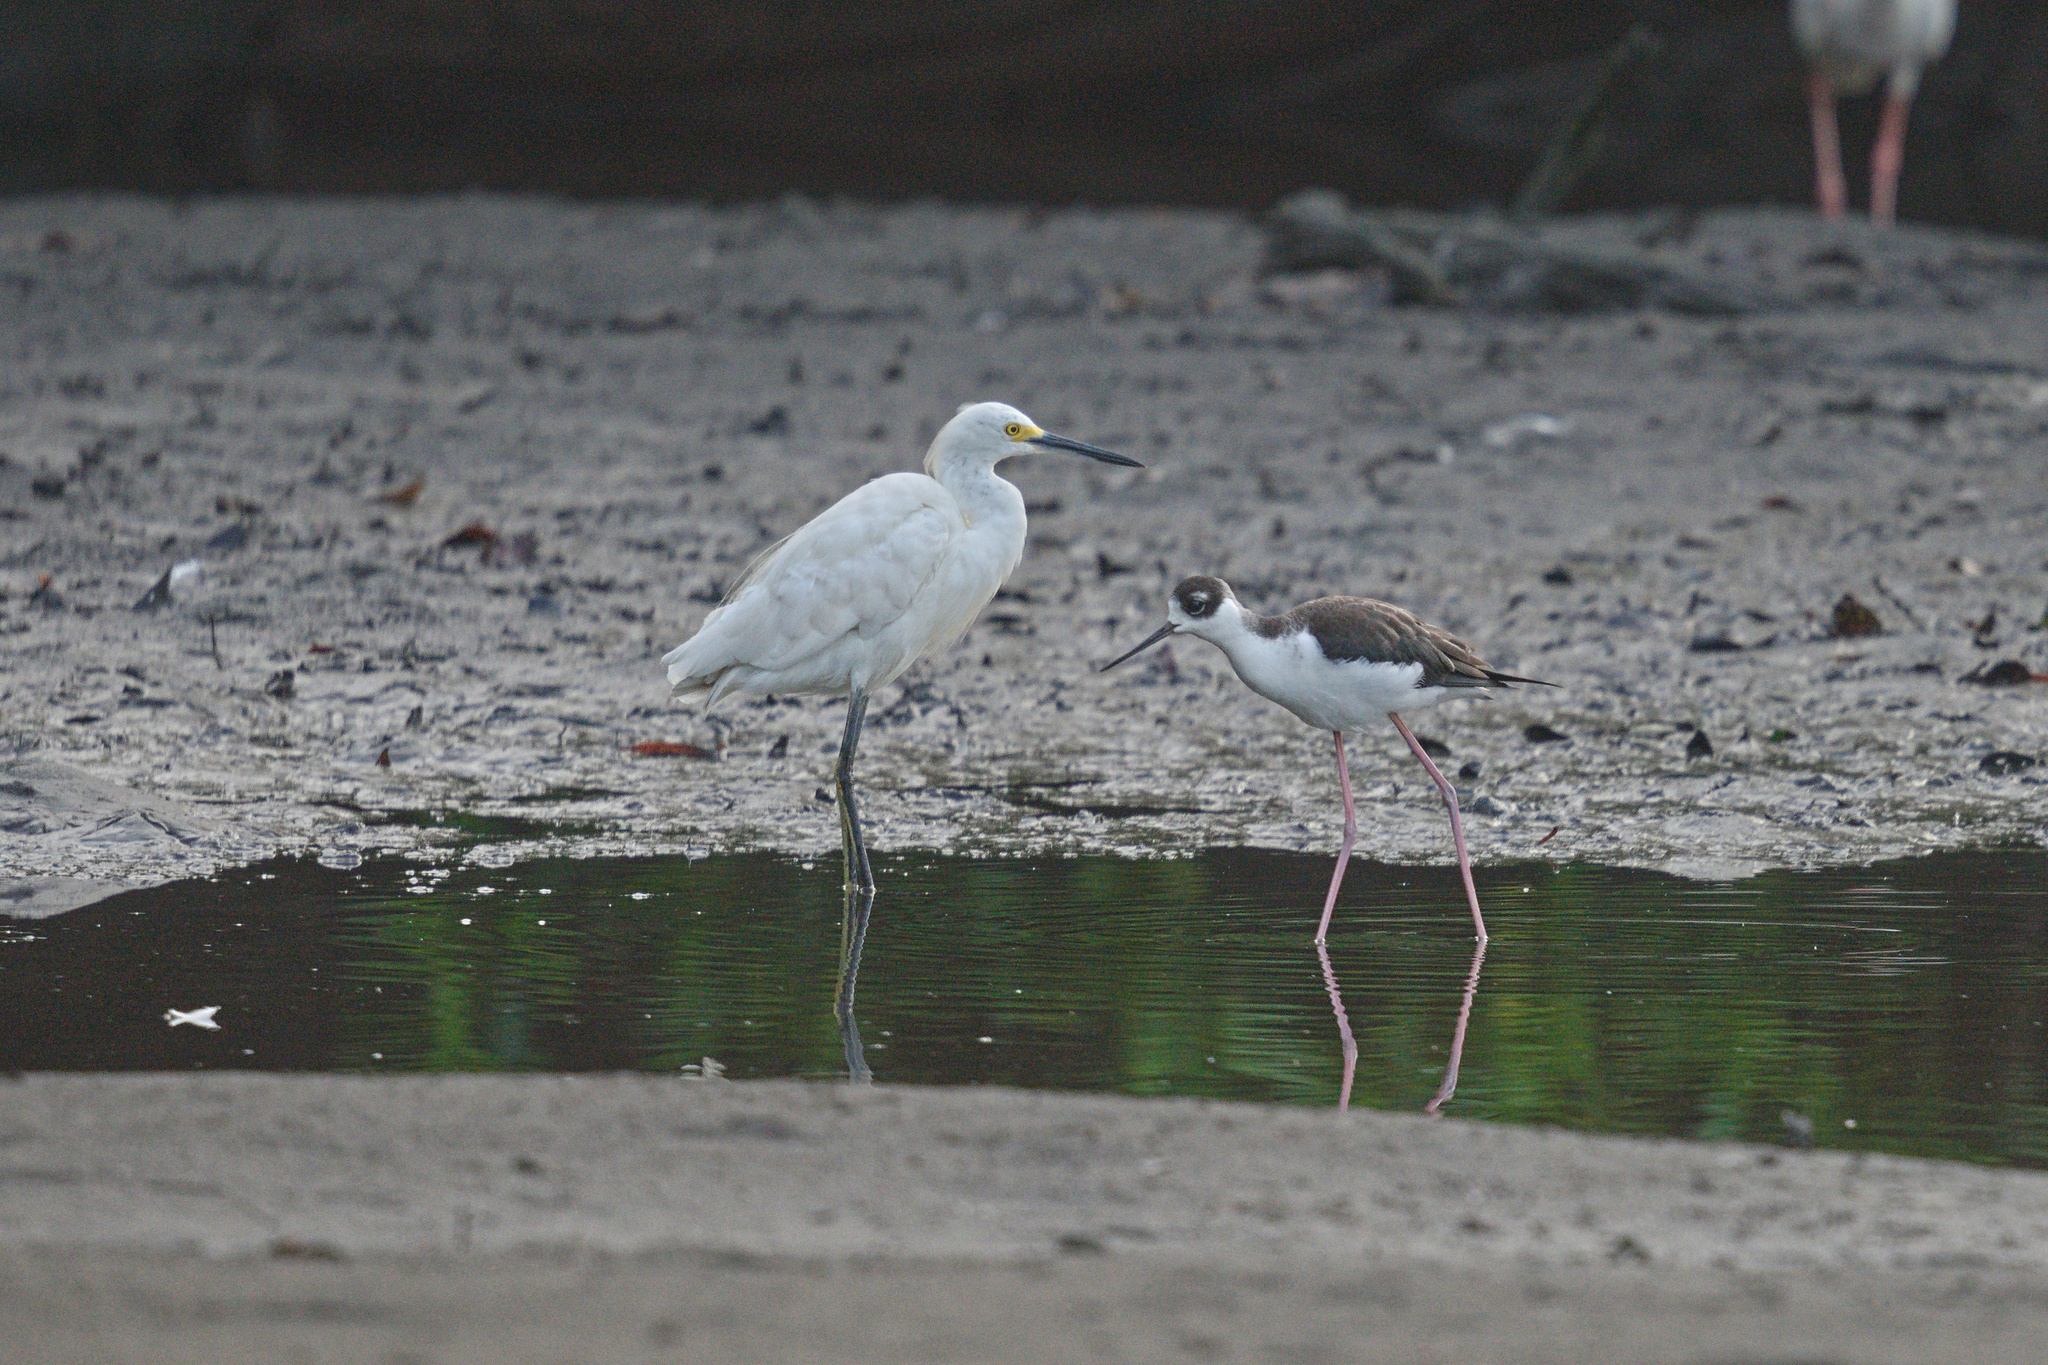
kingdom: Animalia
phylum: Chordata
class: Aves
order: Pelecaniformes
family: Ardeidae
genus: Egretta
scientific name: Egretta thula
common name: Snowy egret
